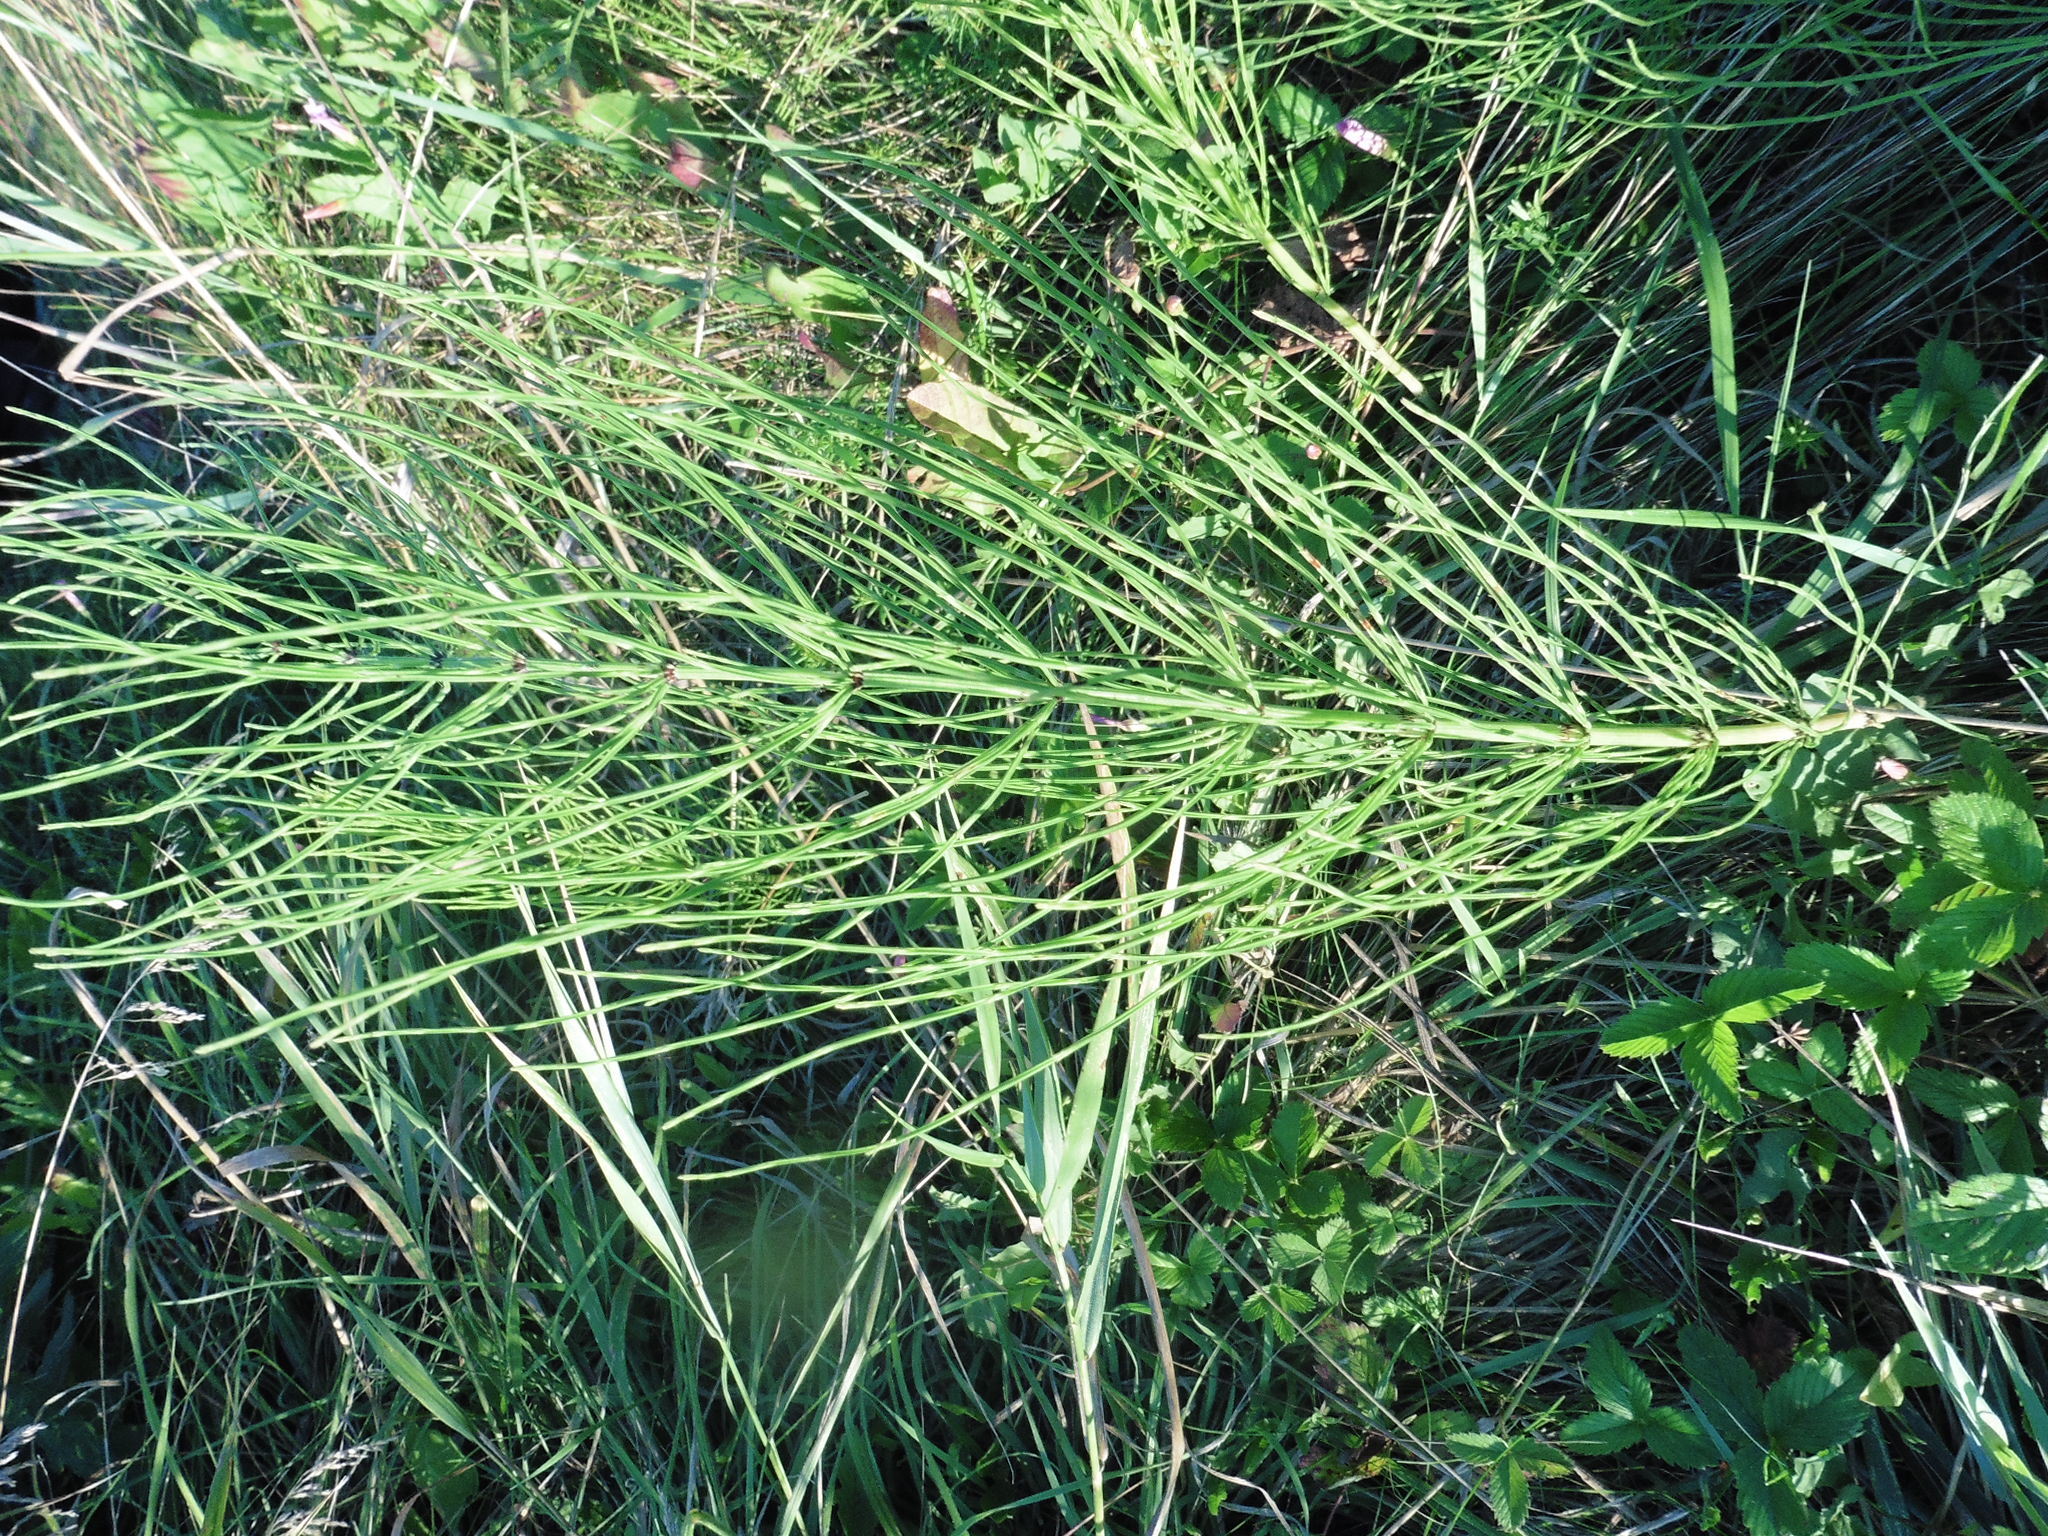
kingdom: Plantae
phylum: Tracheophyta
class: Polypodiopsida
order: Equisetales
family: Equisetaceae
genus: Equisetum
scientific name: Equisetum arvense
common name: Field horsetail
